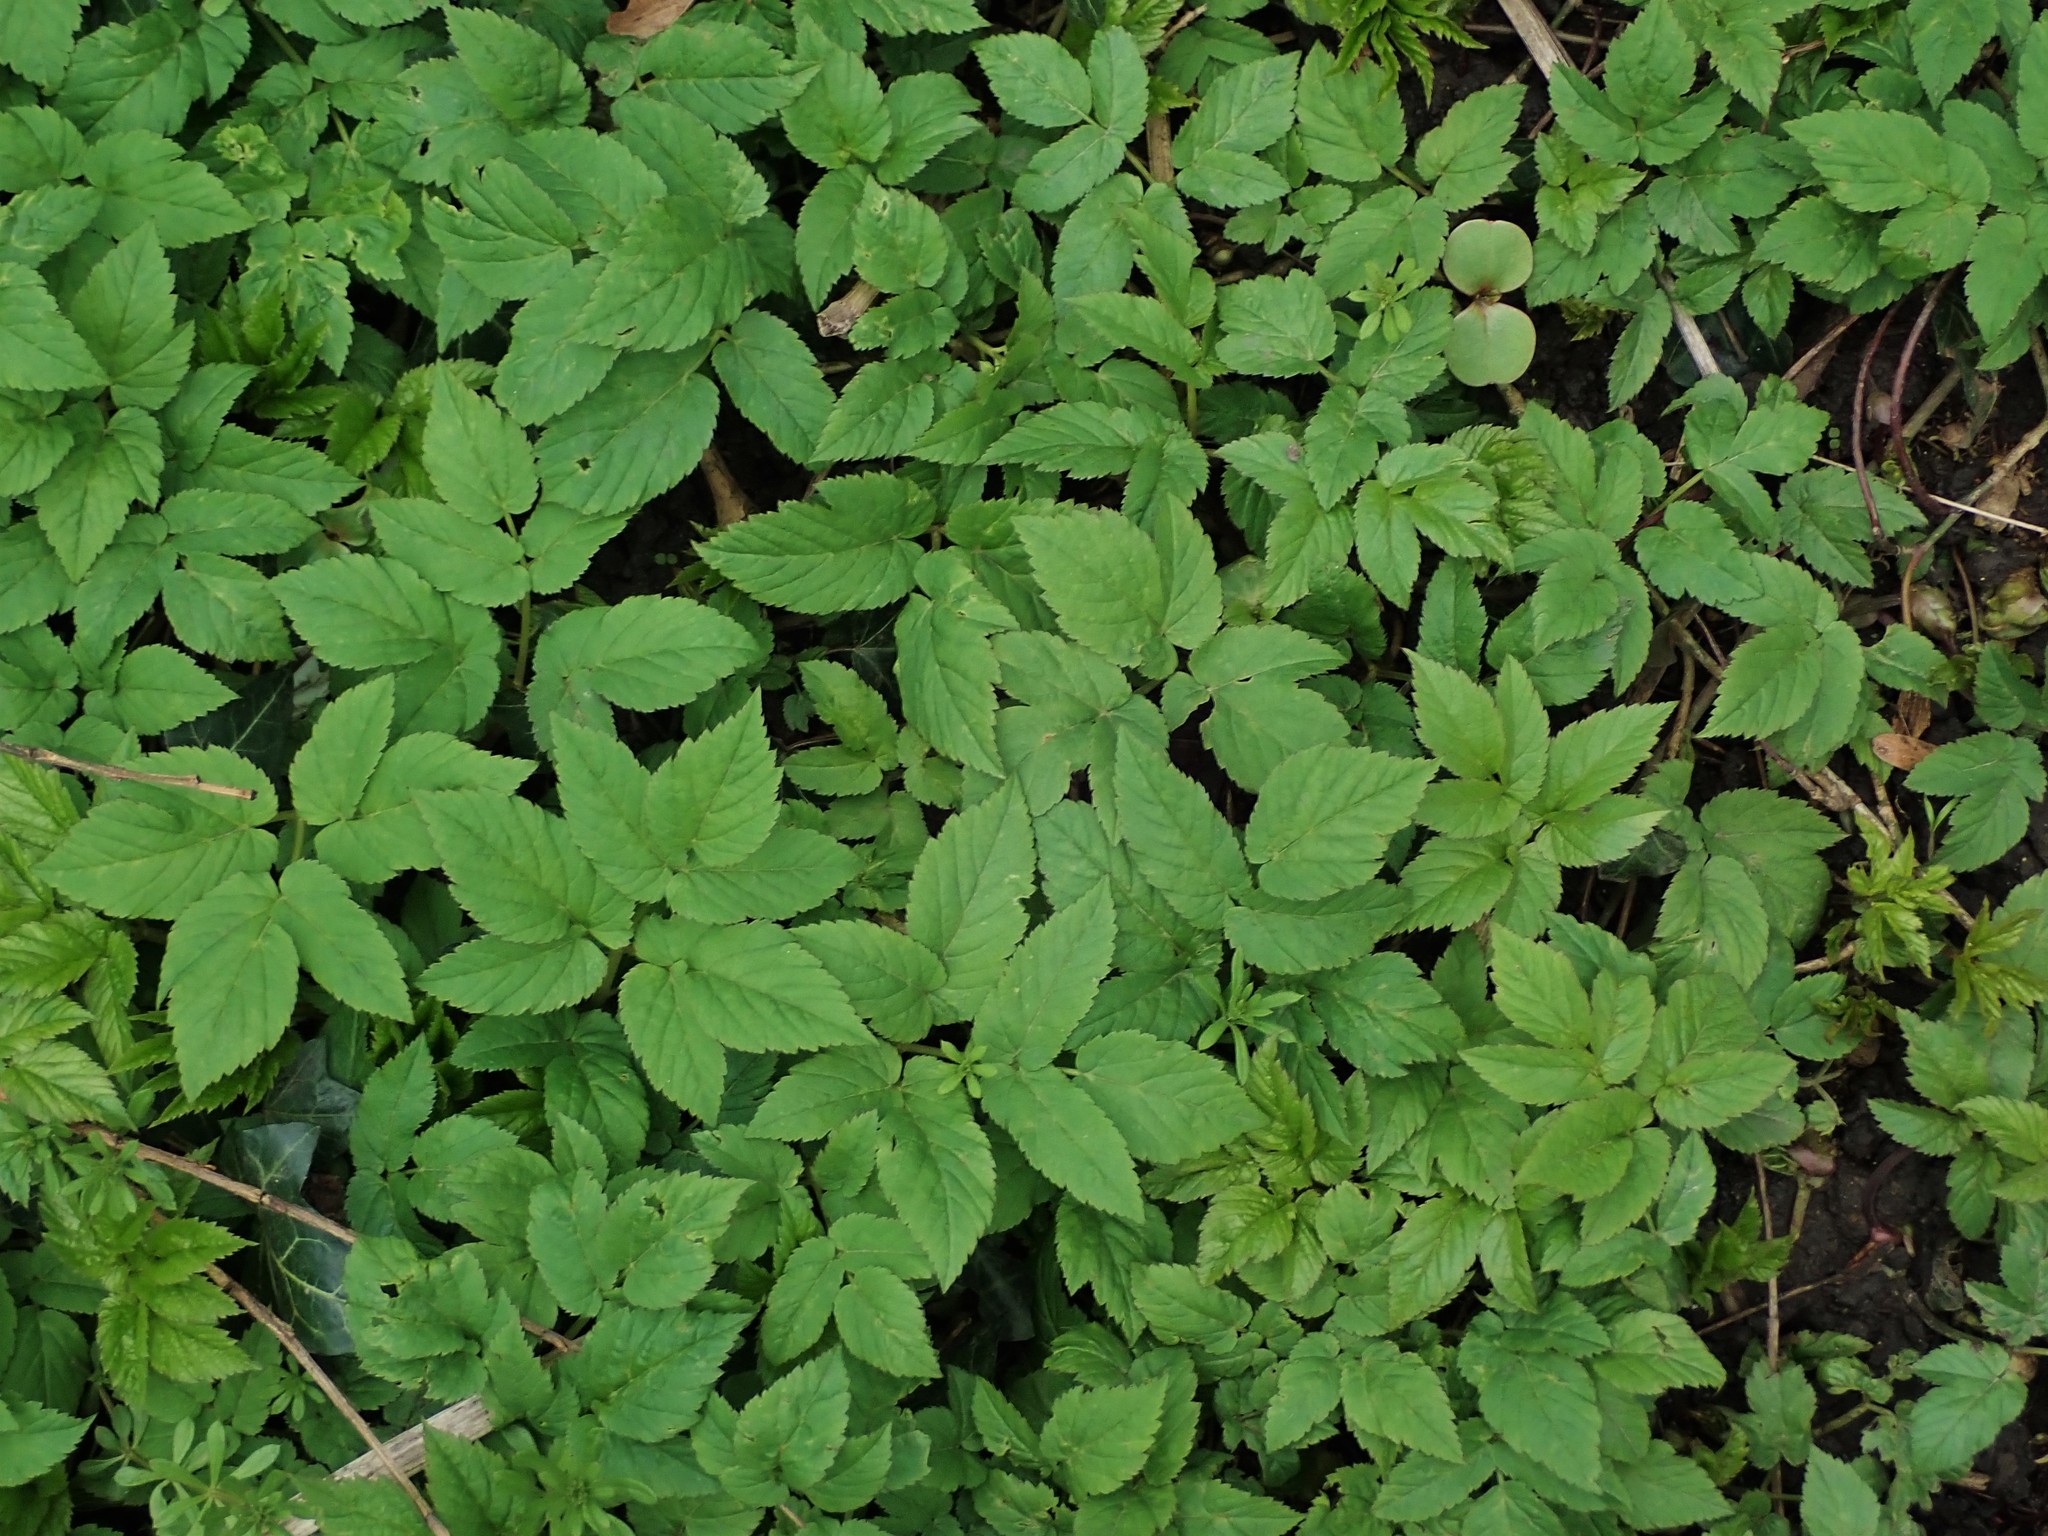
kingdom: Plantae
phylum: Tracheophyta
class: Magnoliopsida
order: Apiales
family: Apiaceae
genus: Aegopodium
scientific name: Aegopodium podagraria
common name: Ground-elder
